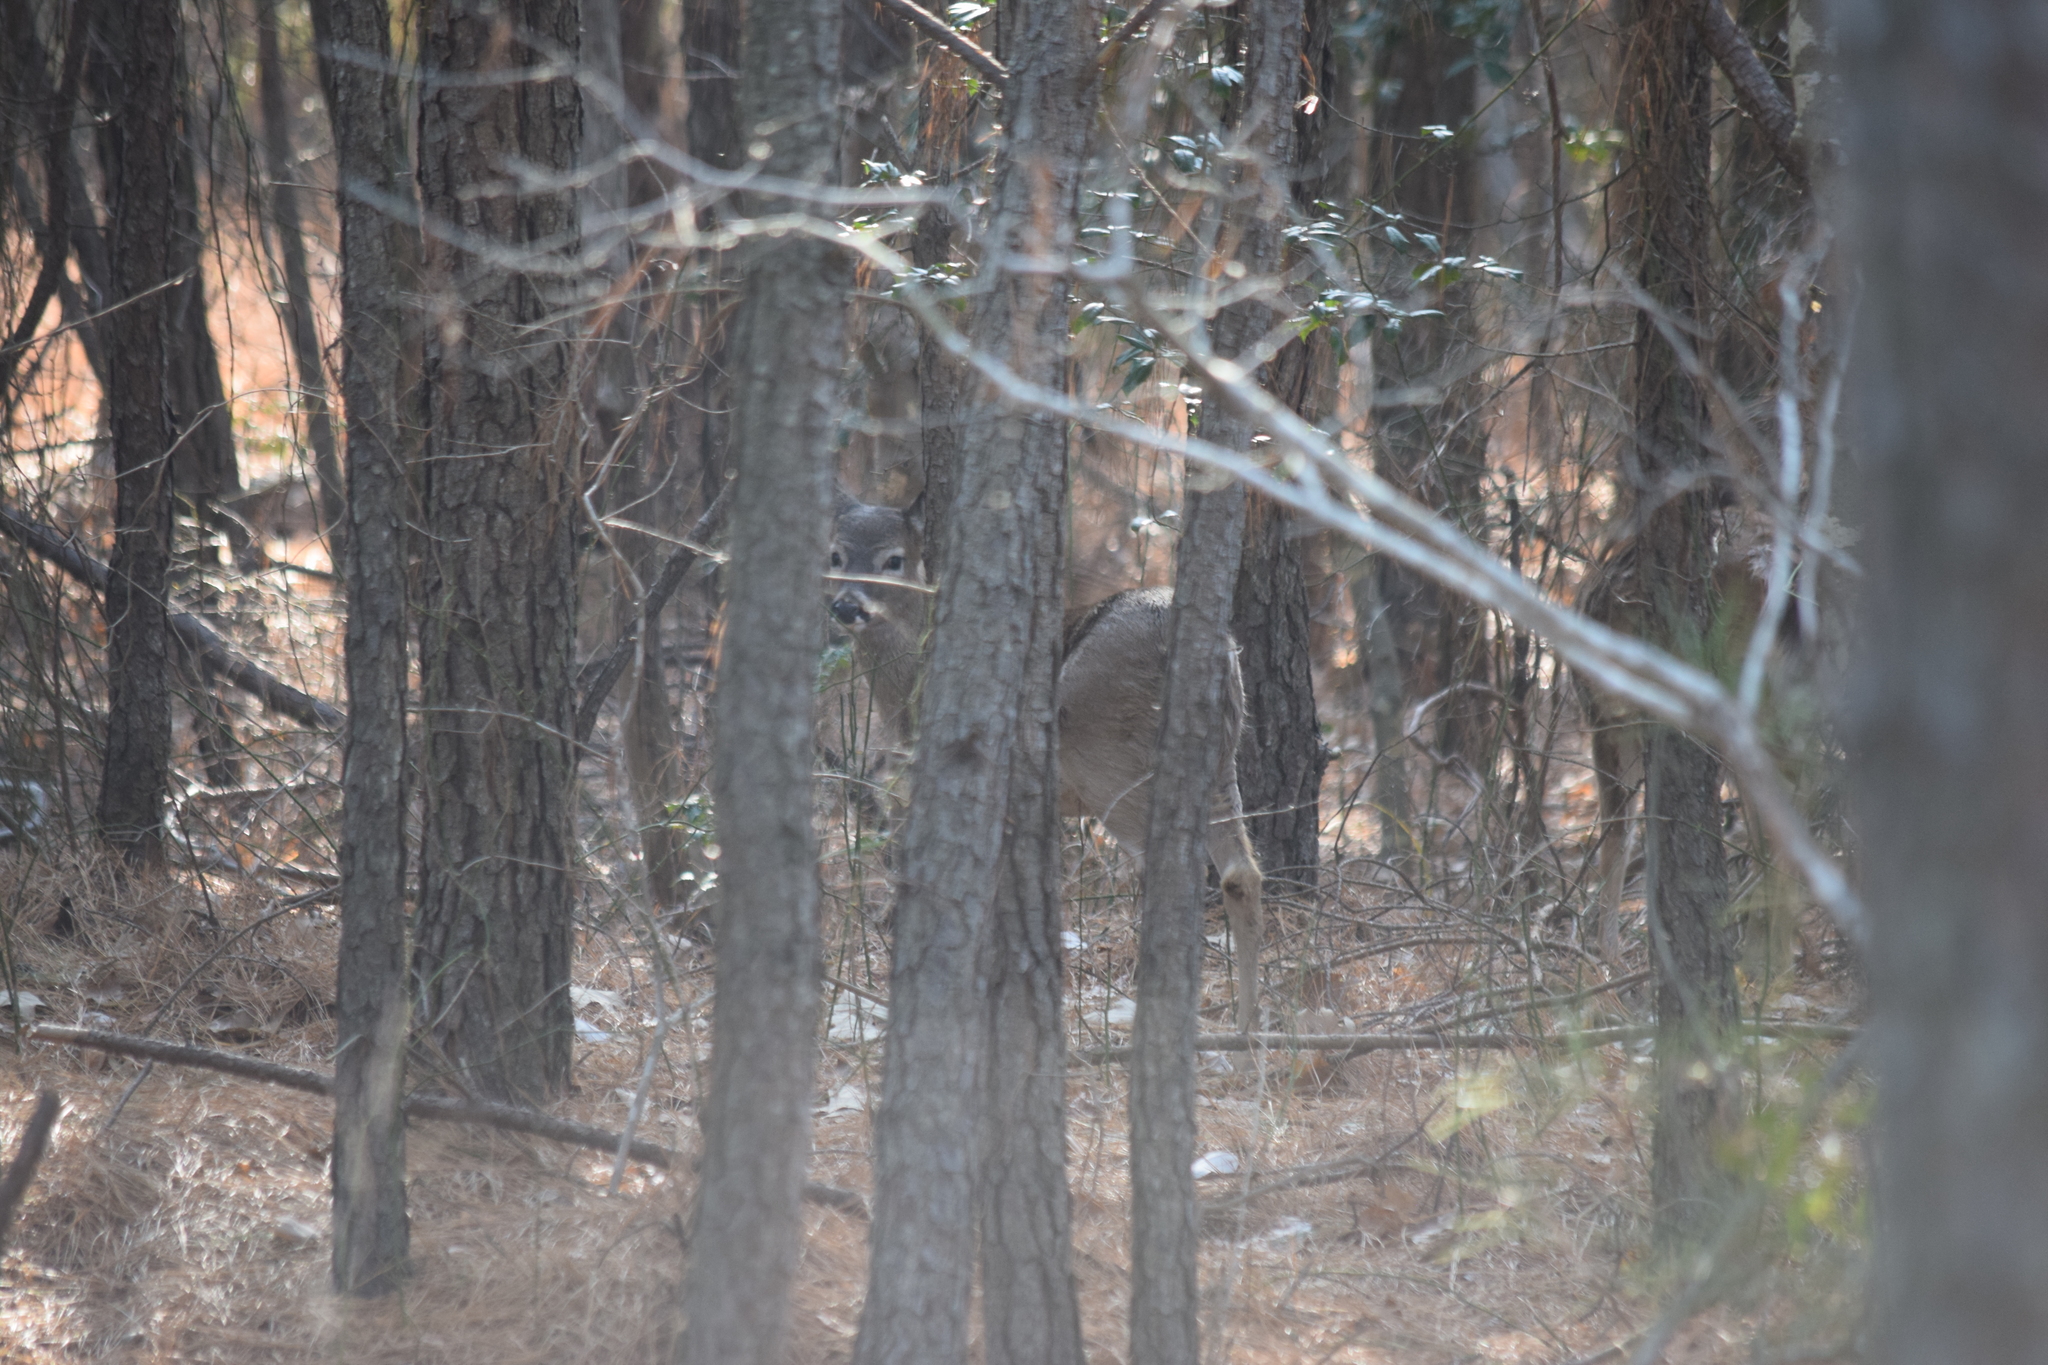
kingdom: Animalia
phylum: Chordata
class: Mammalia
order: Artiodactyla
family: Cervidae
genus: Odocoileus
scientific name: Odocoileus virginianus
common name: White-tailed deer
